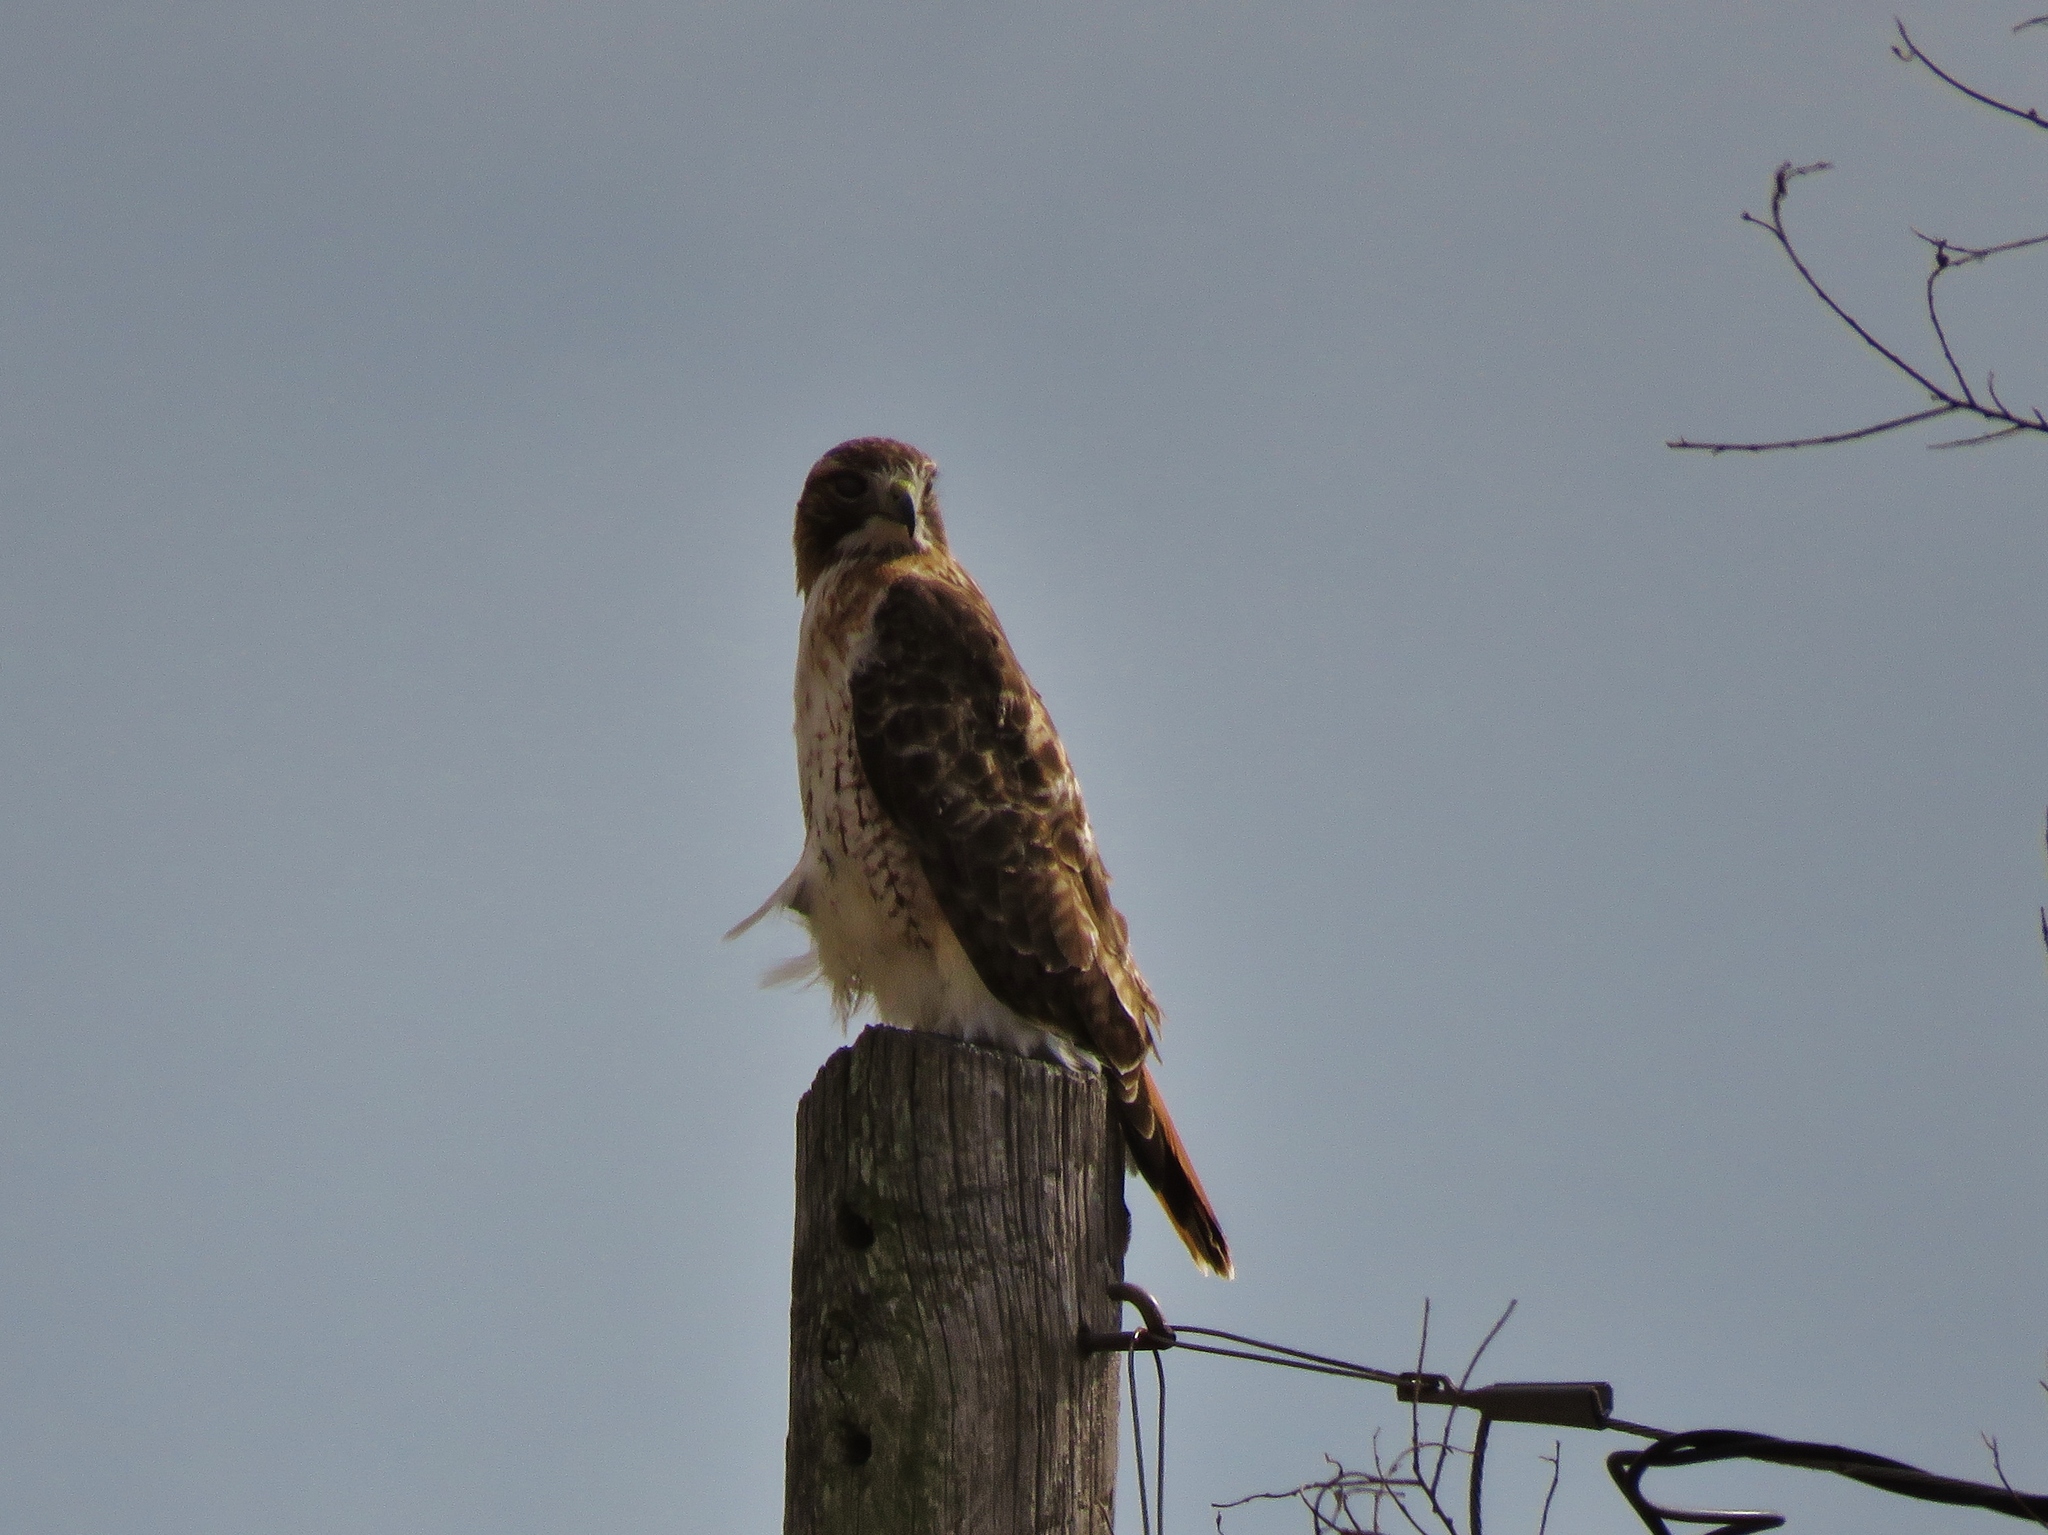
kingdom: Animalia
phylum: Chordata
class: Aves
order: Accipitriformes
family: Accipitridae
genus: Buteo
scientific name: Buteo jamaicensis
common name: Red-tailed hawk
